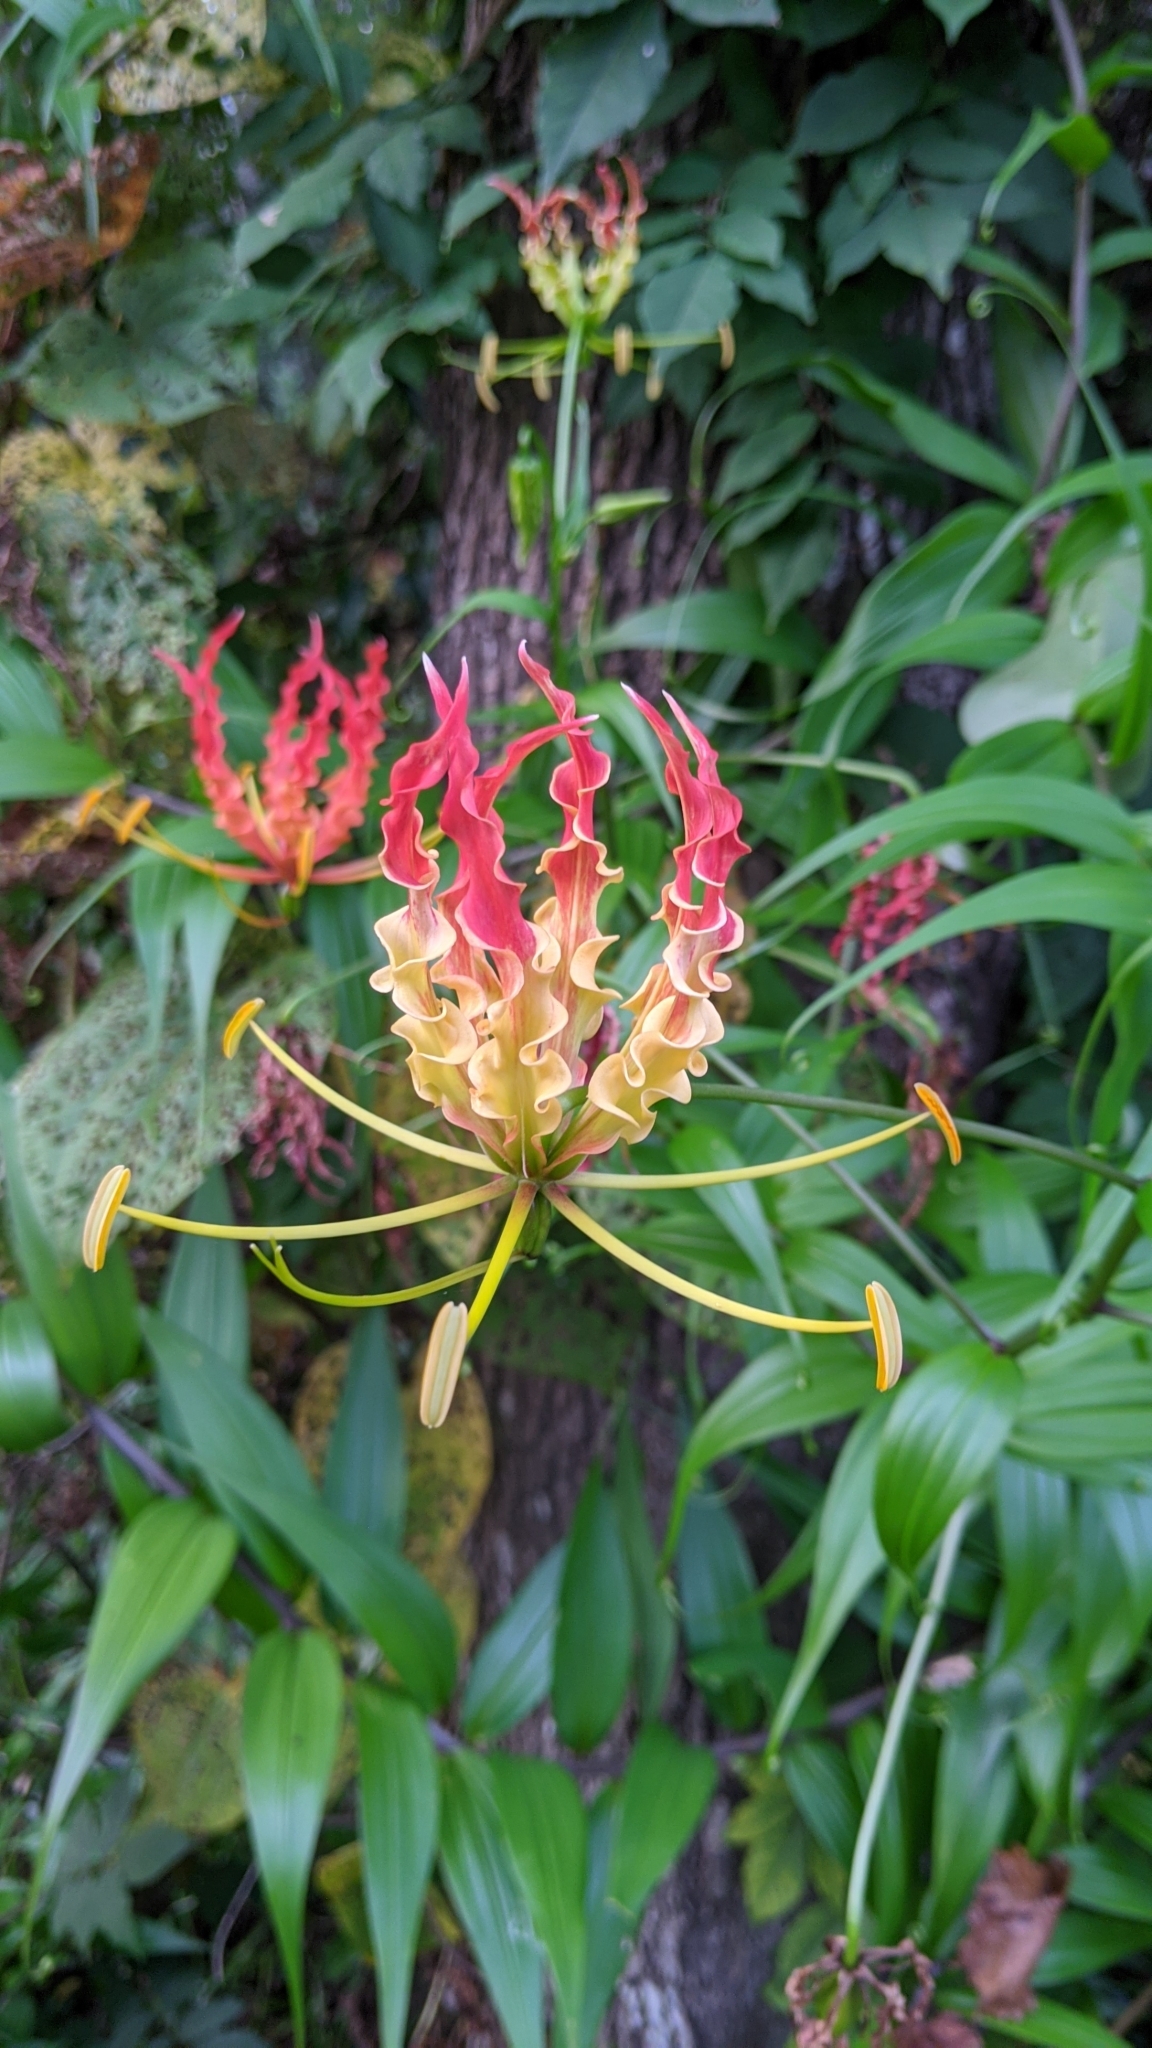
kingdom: Plantae
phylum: Tracheophyta
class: Liliopsida
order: Liliales
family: Colchicaceae
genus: Gloriosa
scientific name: Gloriosa superba
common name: Flame lily
